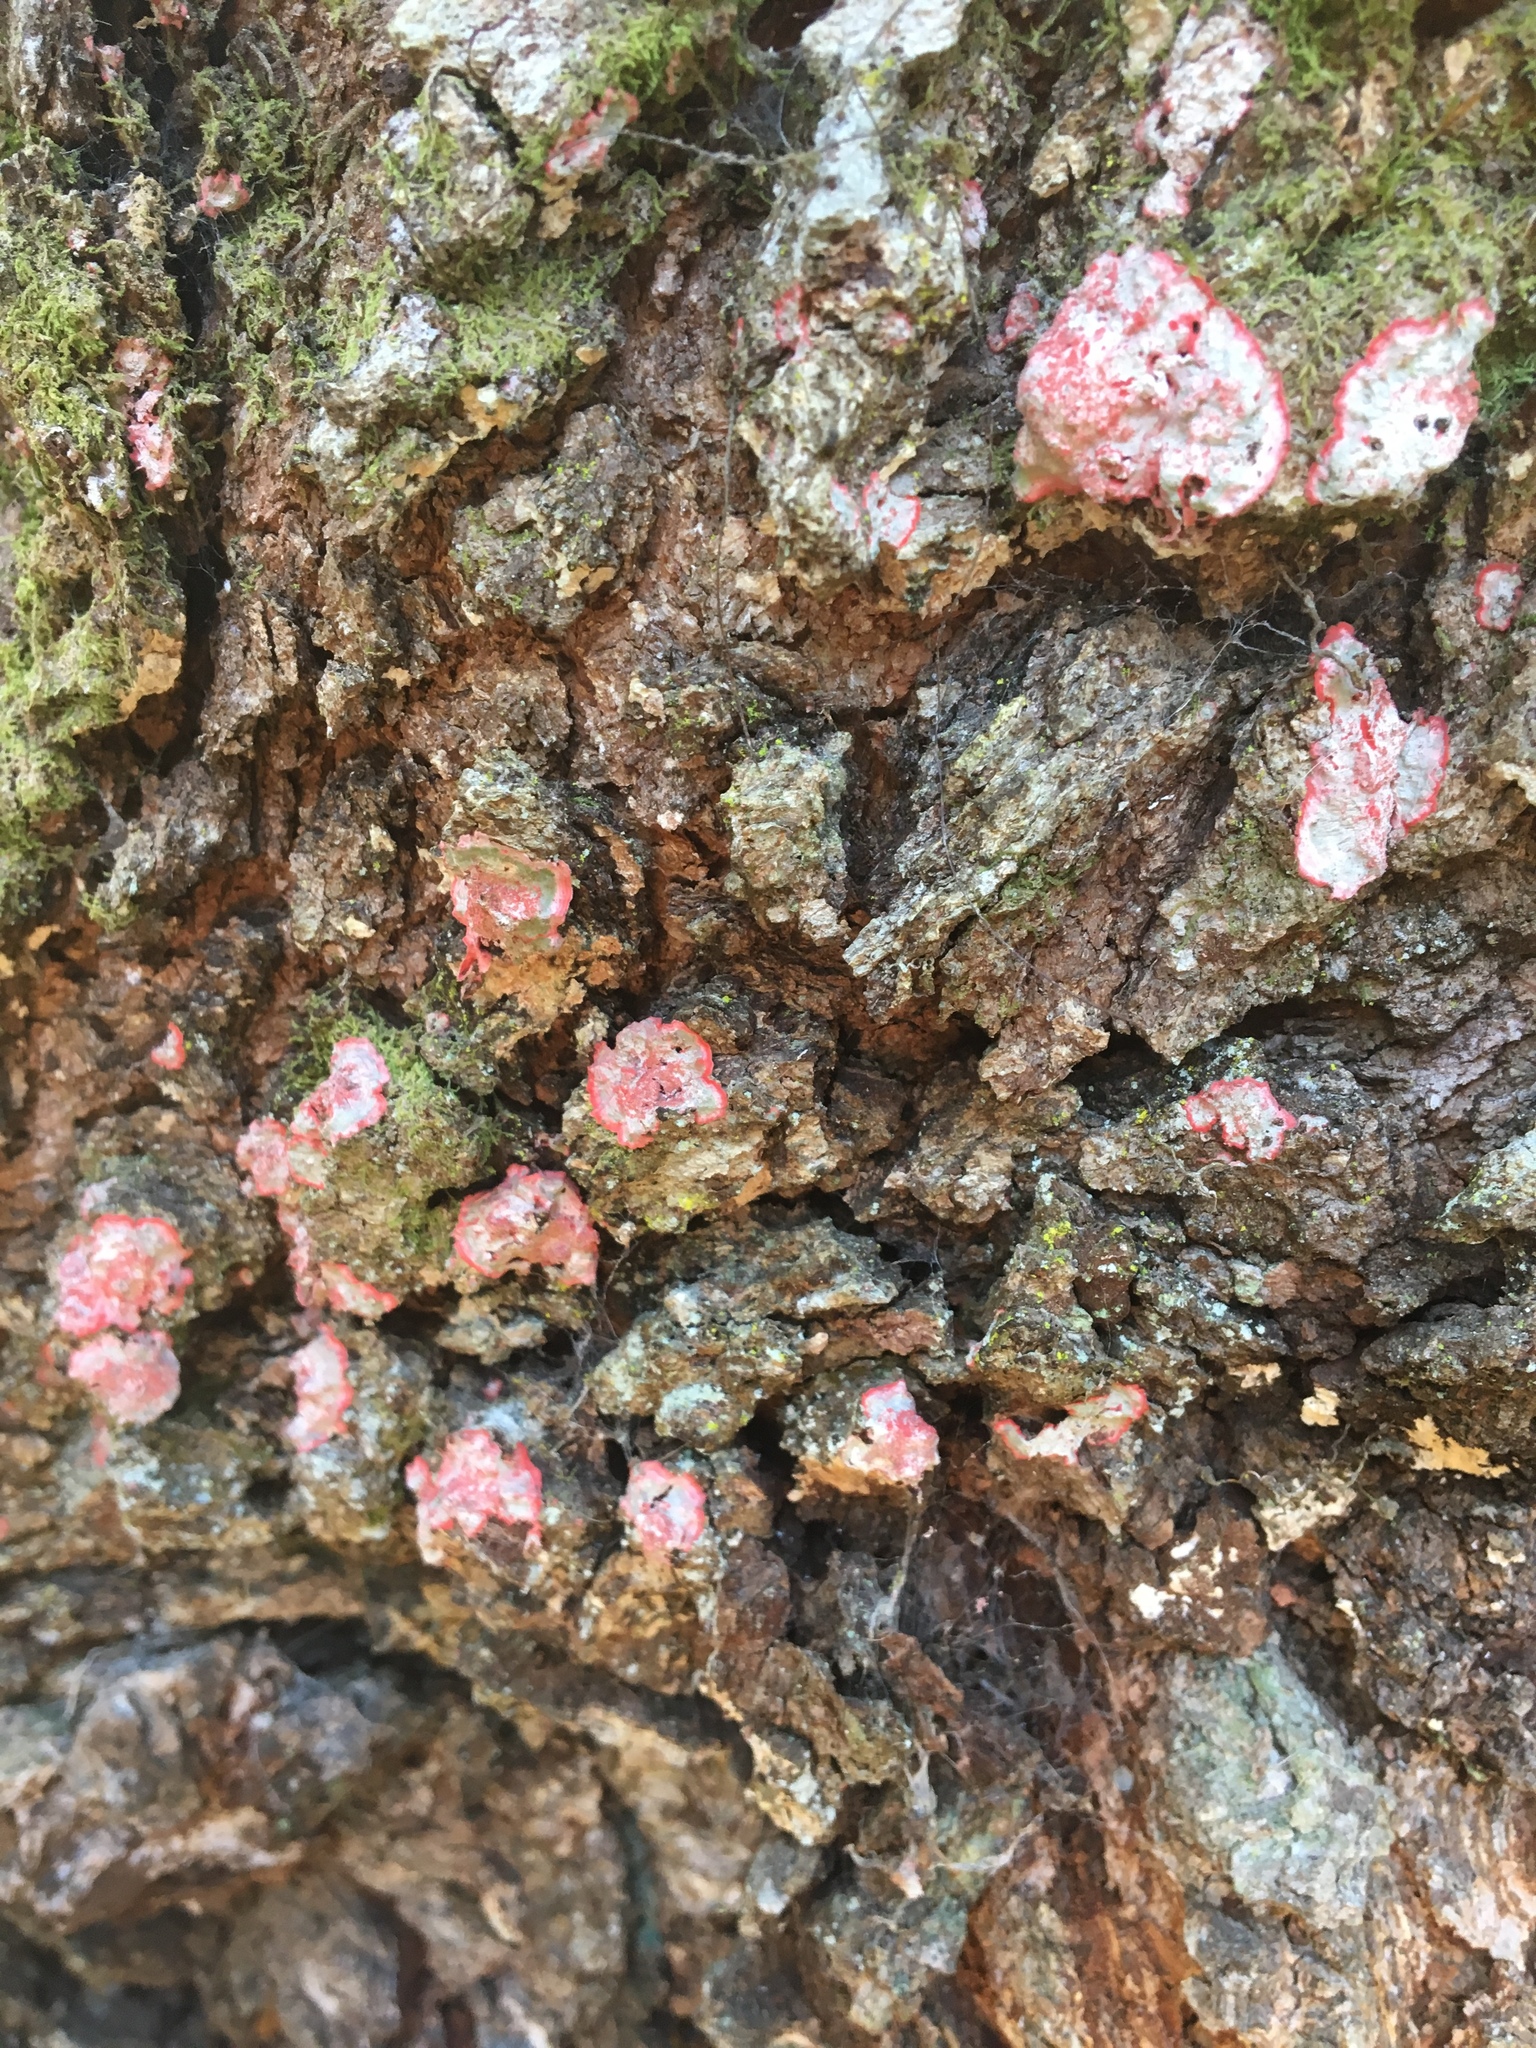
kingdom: Fungi
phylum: Ascomycota
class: Arthoniomycetes
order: Arthoniales
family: Arthoniaceae
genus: Herpothallon
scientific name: Herpothallon rubrocinctum
